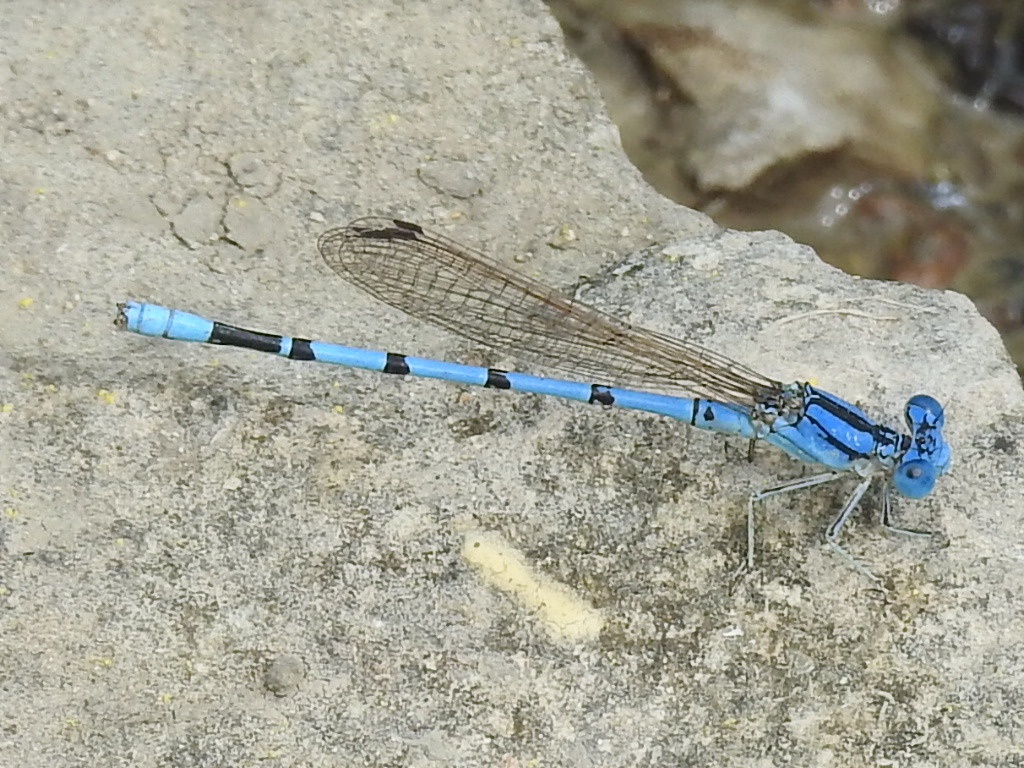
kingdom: Animalia
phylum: Arthropoda
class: Insecta
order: Odonata
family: Coenagrionidae
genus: Argia
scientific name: Argia nahuana
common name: Aztec dancer
